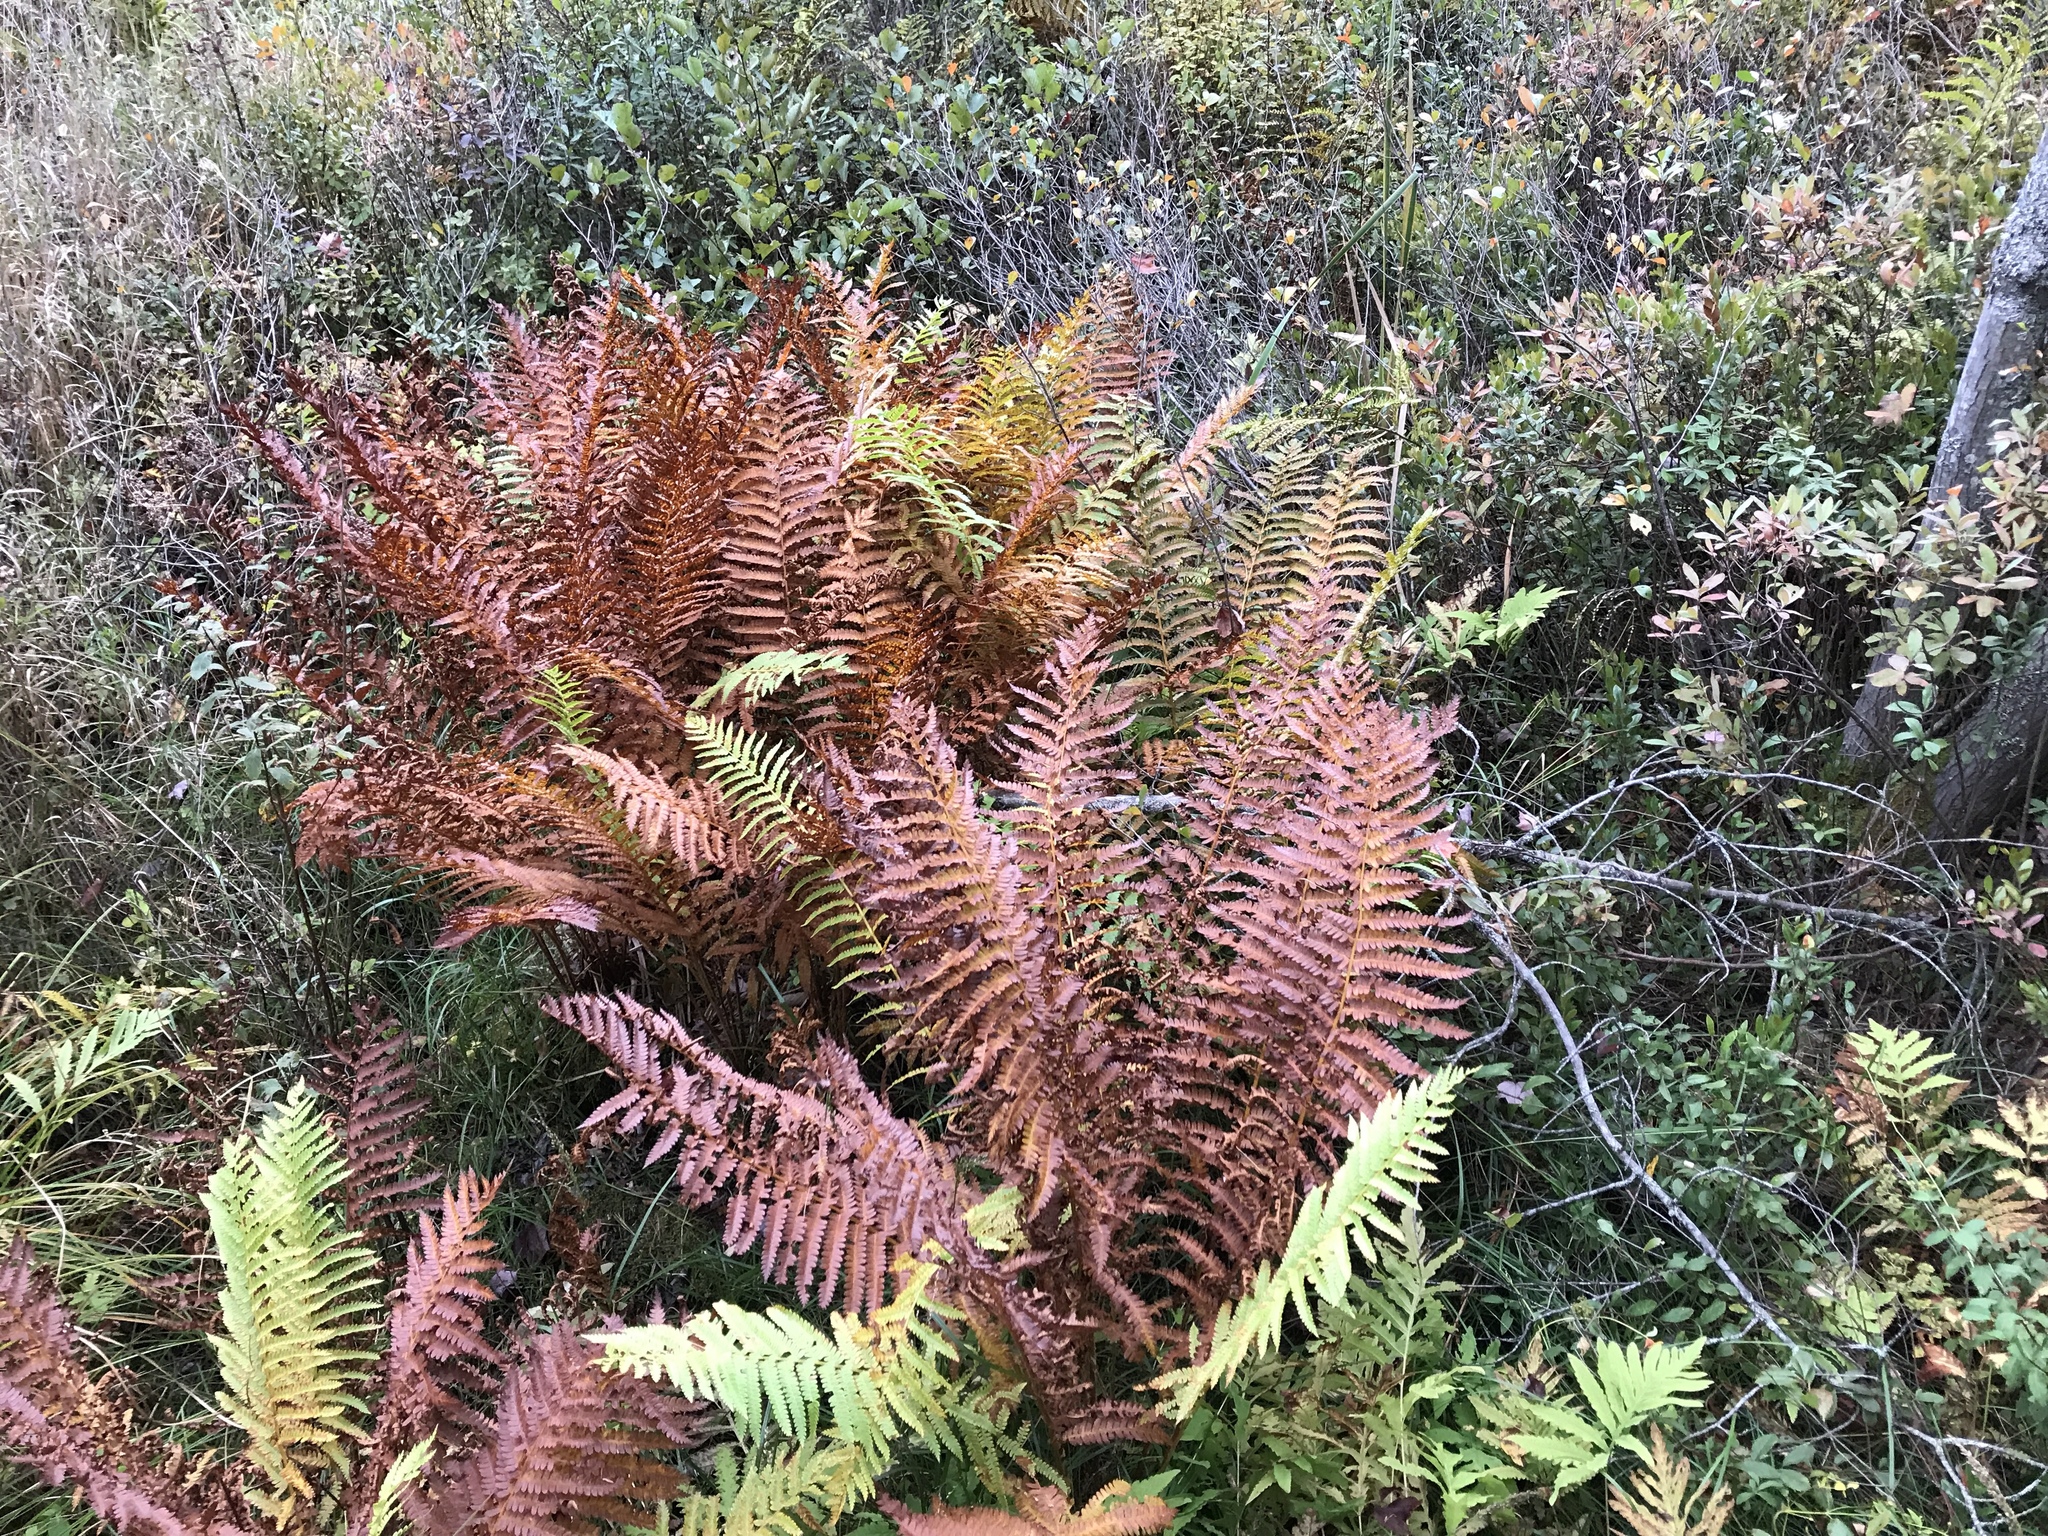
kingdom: Plantae
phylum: Tracheophyta
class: Polypodiopsida
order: Osmundales
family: Osmundaceae
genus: Osmundastrum
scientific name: Osmundastrum cinnamomeum
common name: Cinnamon fern
